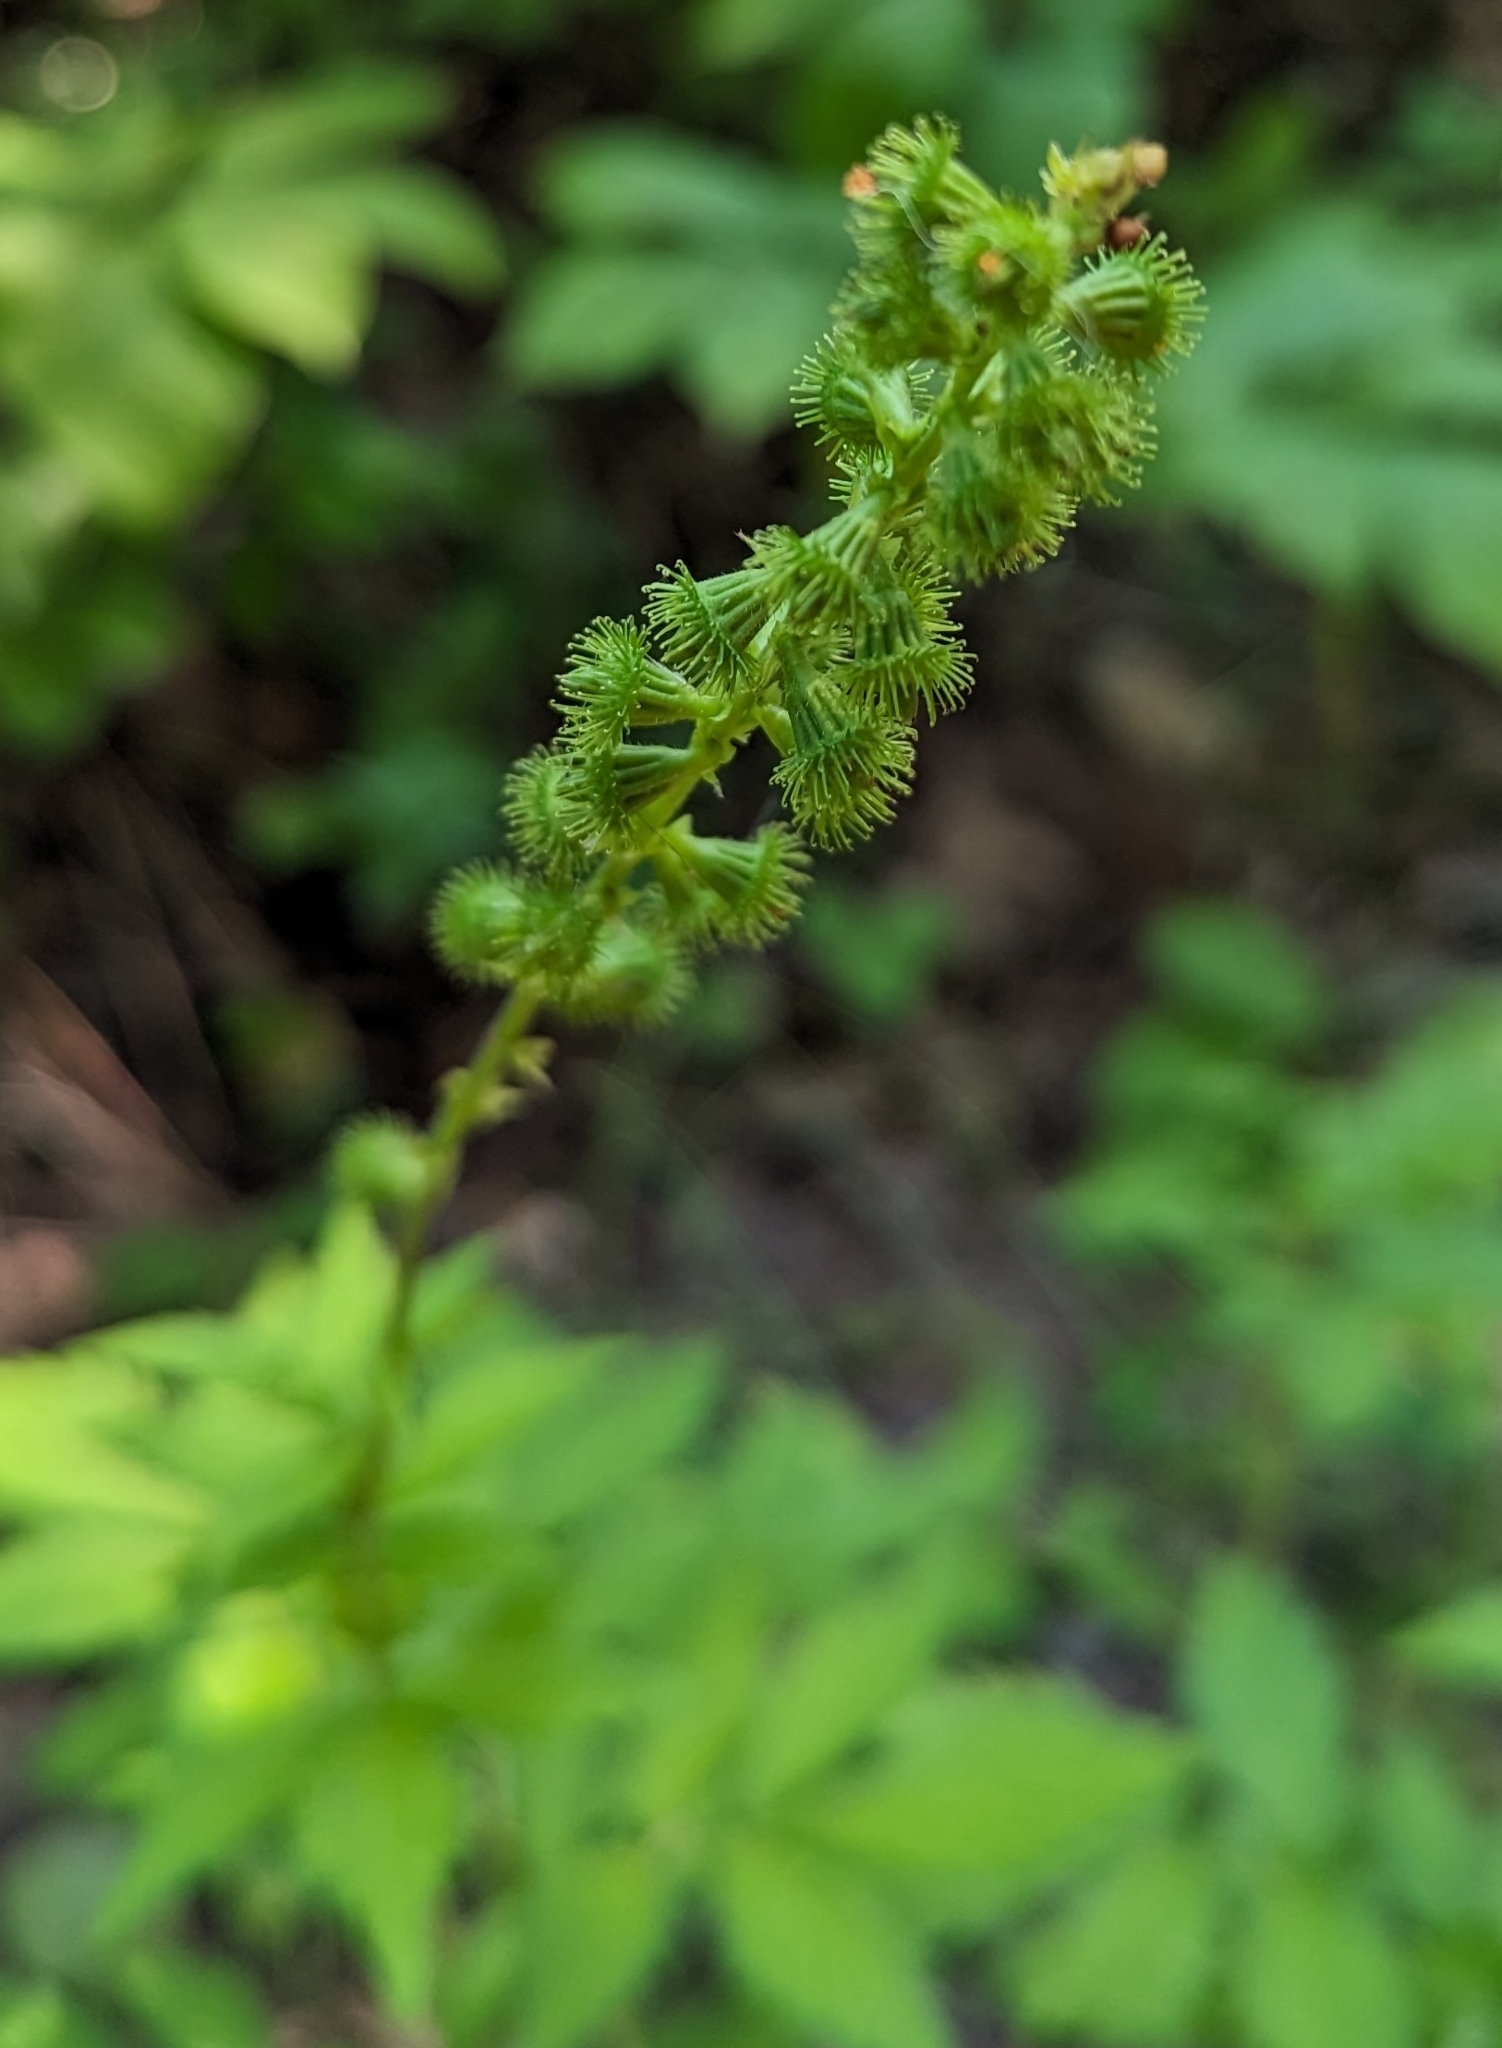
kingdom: Plantae
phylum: Tracheophyta
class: Magnoliopsida
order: Rosales
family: Rosaceae
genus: Agrimonia
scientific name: Agrimonia striata
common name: Britton's agrimony
